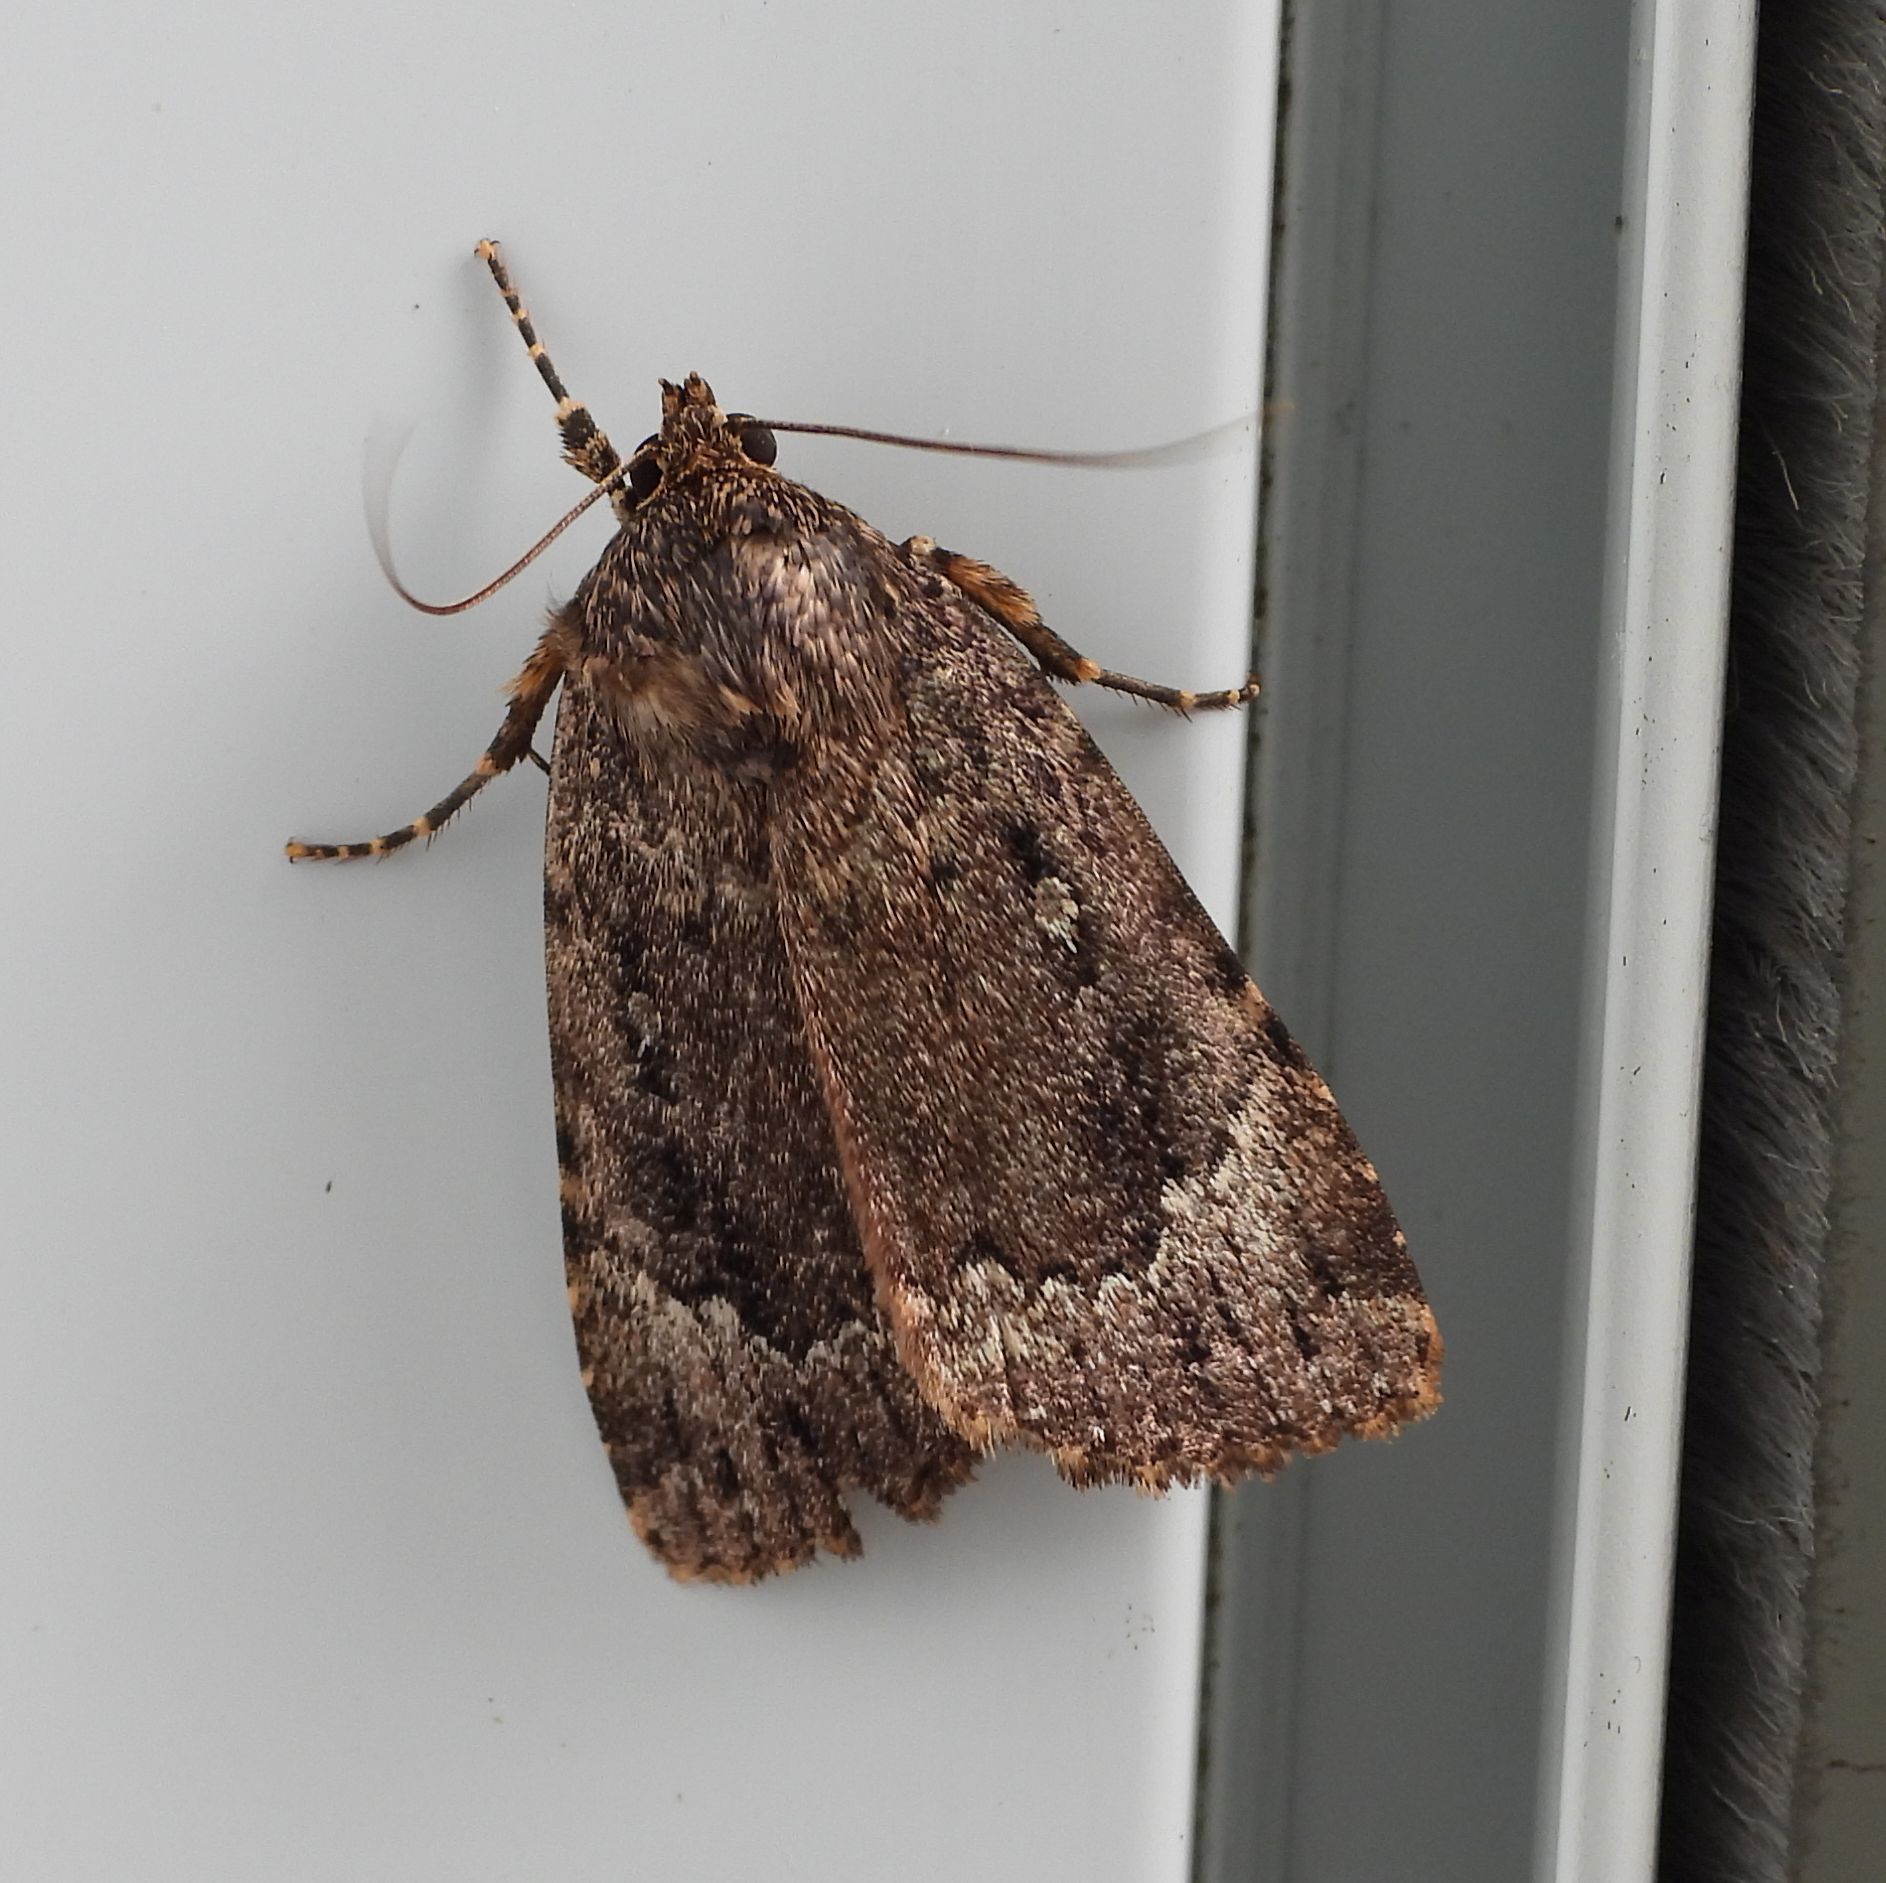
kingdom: Animalia
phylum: Arthropoda
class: Insecta
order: Lepidoptera
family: Noctuidae
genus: Amphipyra
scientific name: Amphipyra pyramidoides
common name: American copper underwing
